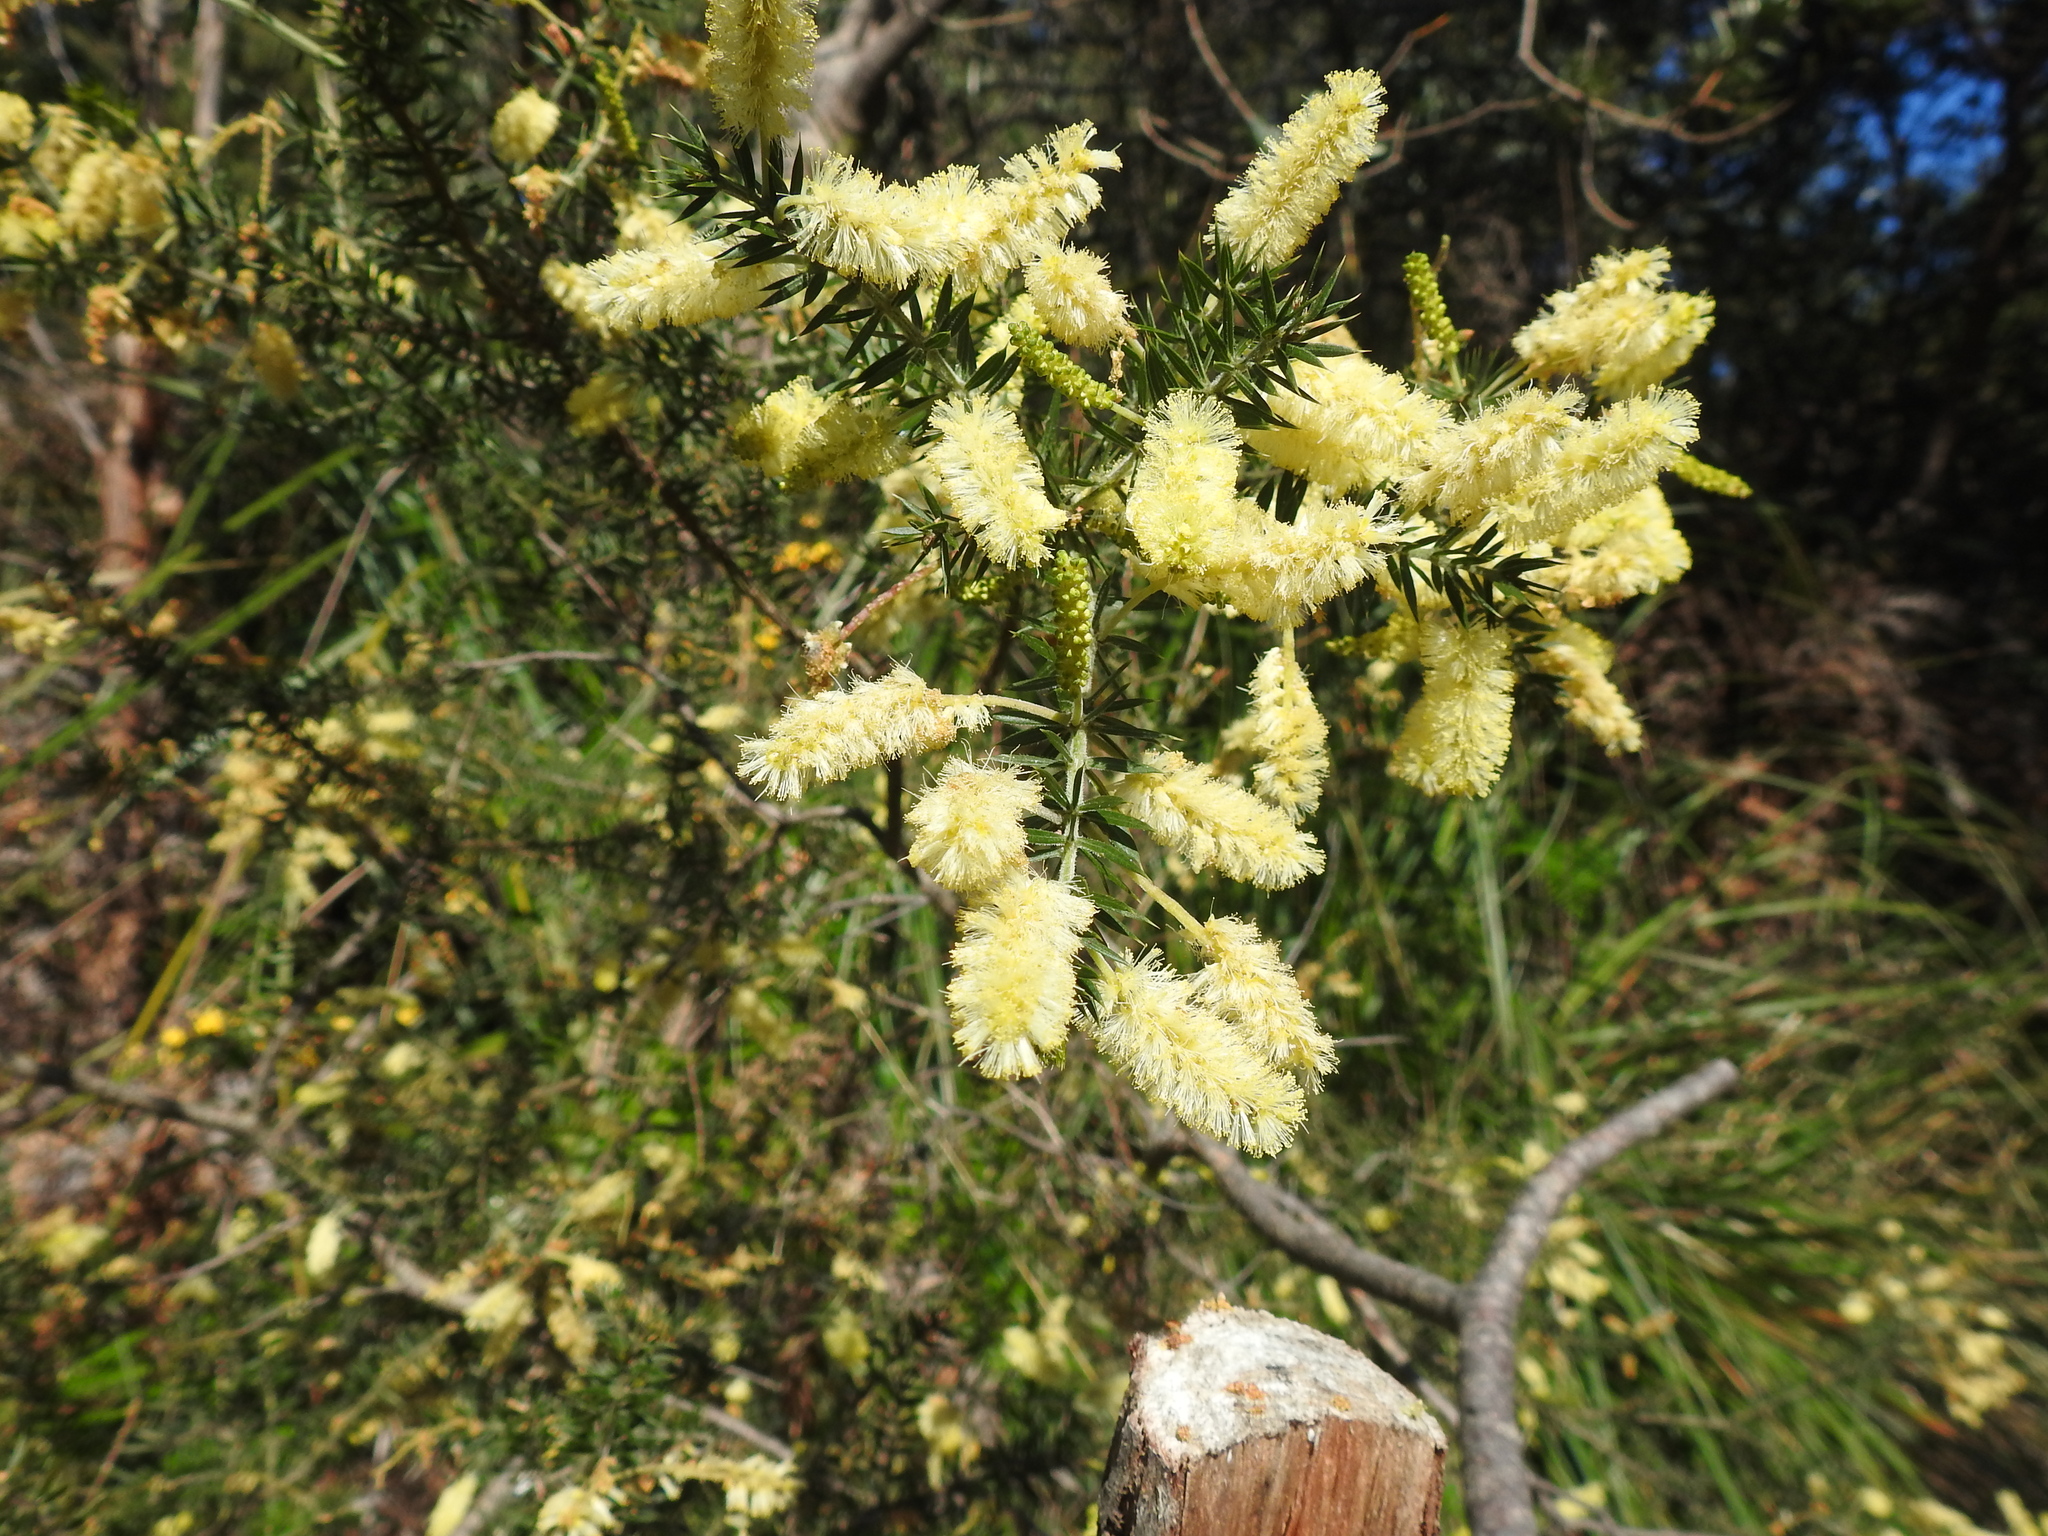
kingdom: Plantae
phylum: Tracheophyta
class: Magnoliopsida
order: Fabales
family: Fabaceae
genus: Acacia
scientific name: Acacia verticillata
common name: Prickly moses
